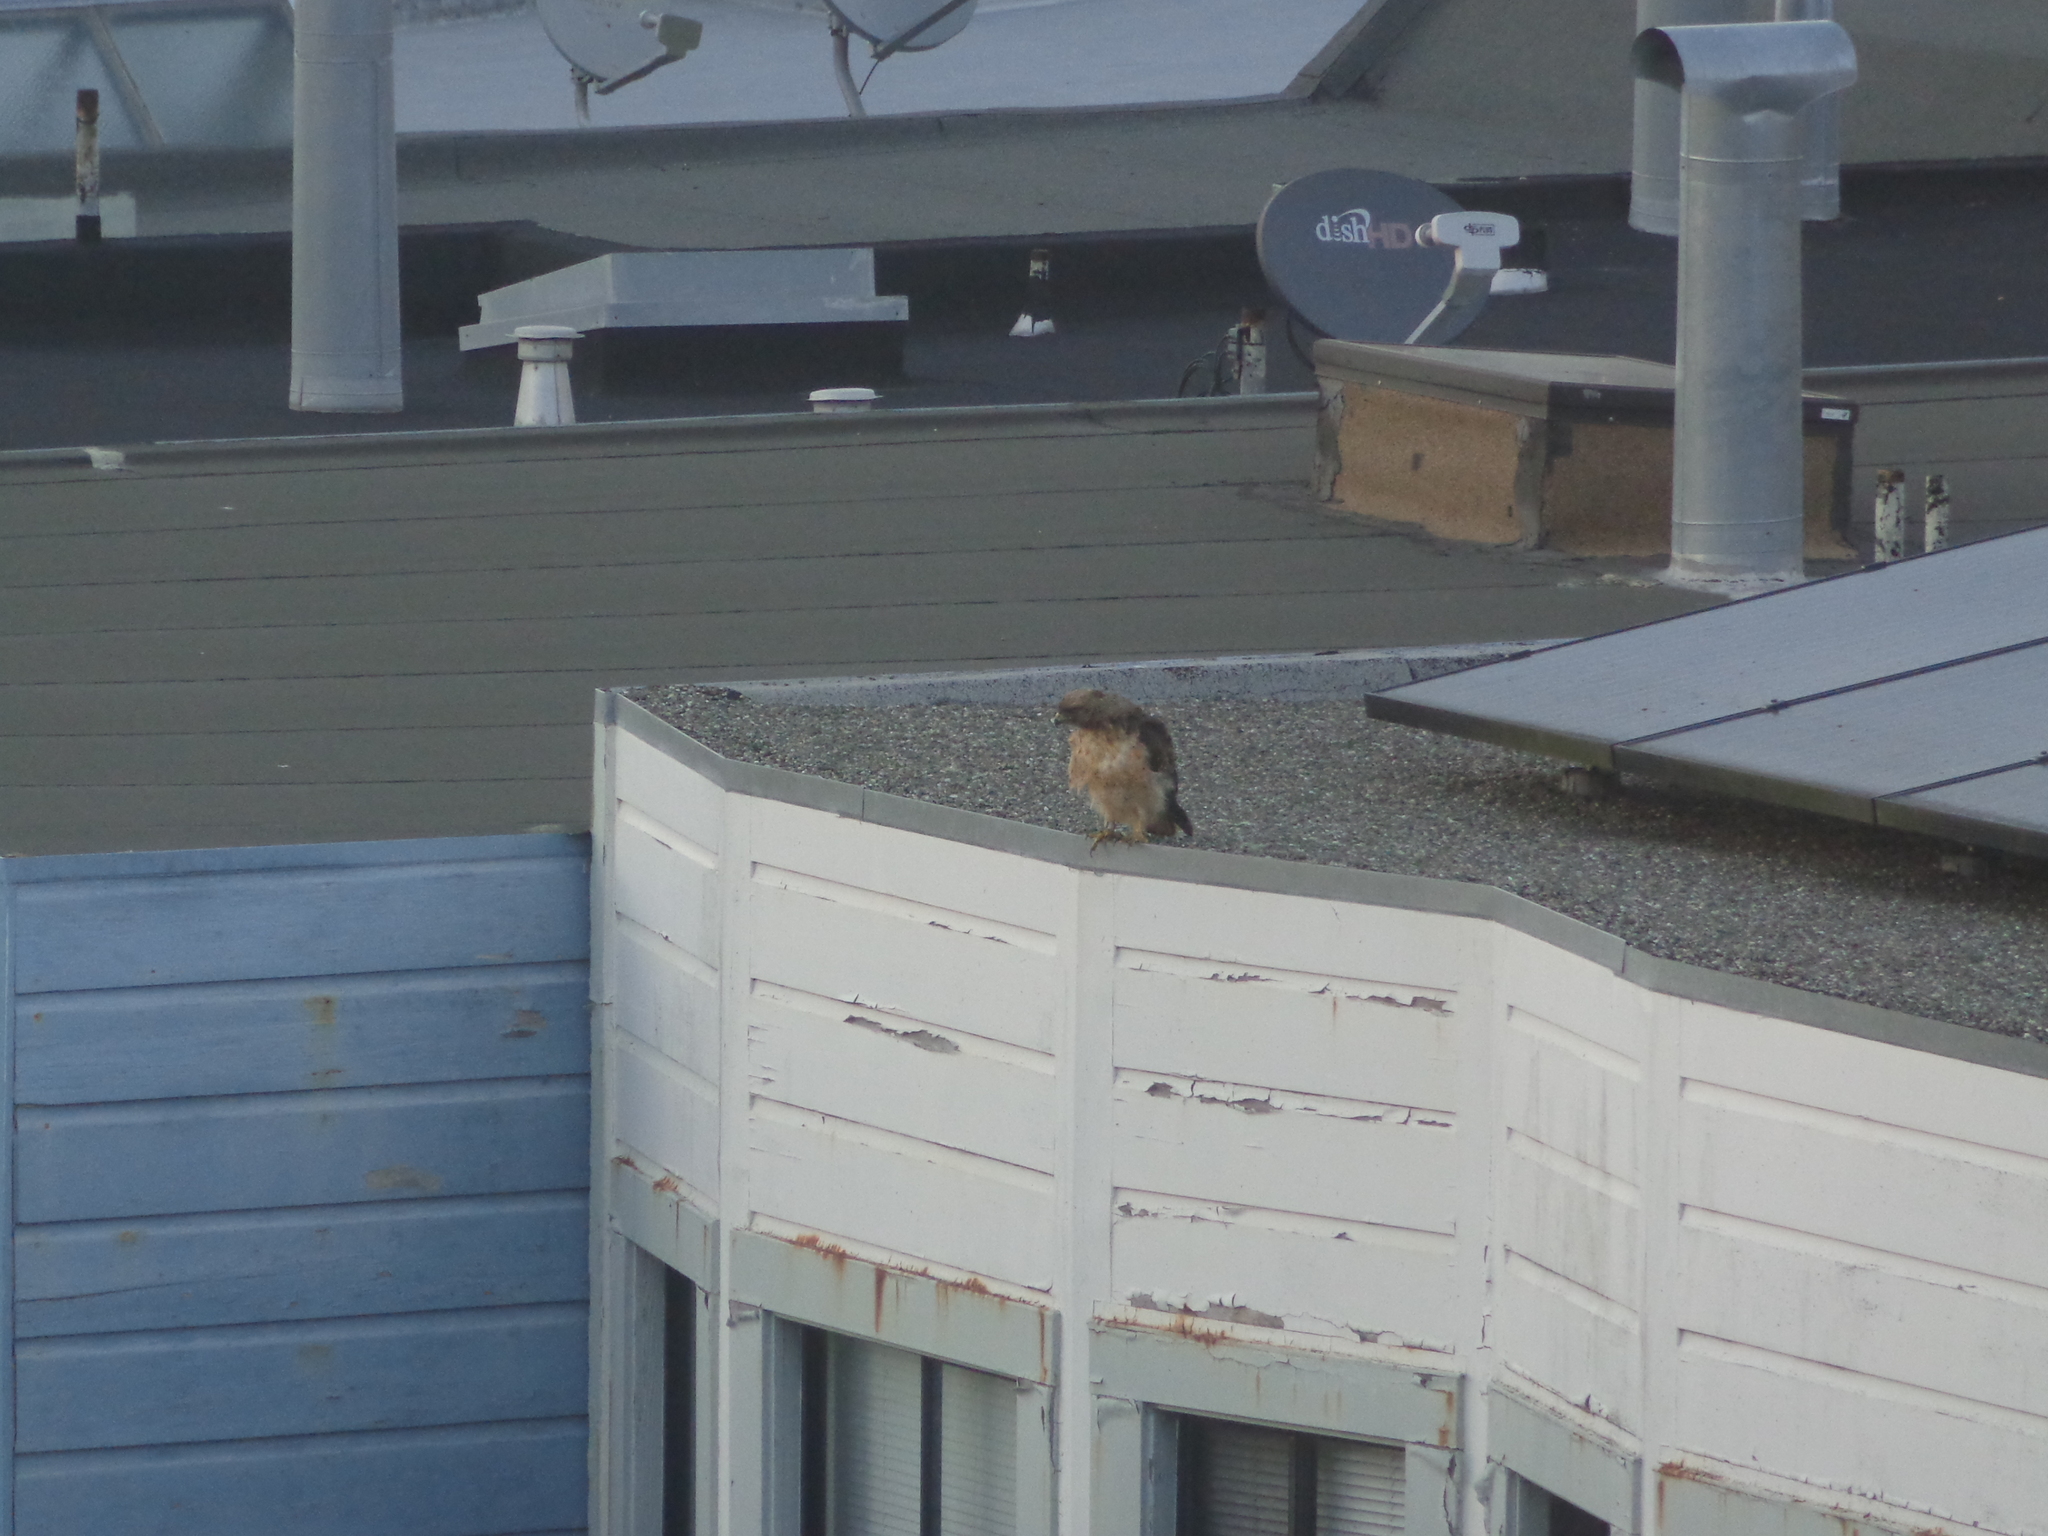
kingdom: Animalia
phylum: Chordata
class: Aves
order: Accipitriformes
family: Accipitridae
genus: Buteo
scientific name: Buteo jamaicensis
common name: Red-tailed hawk
